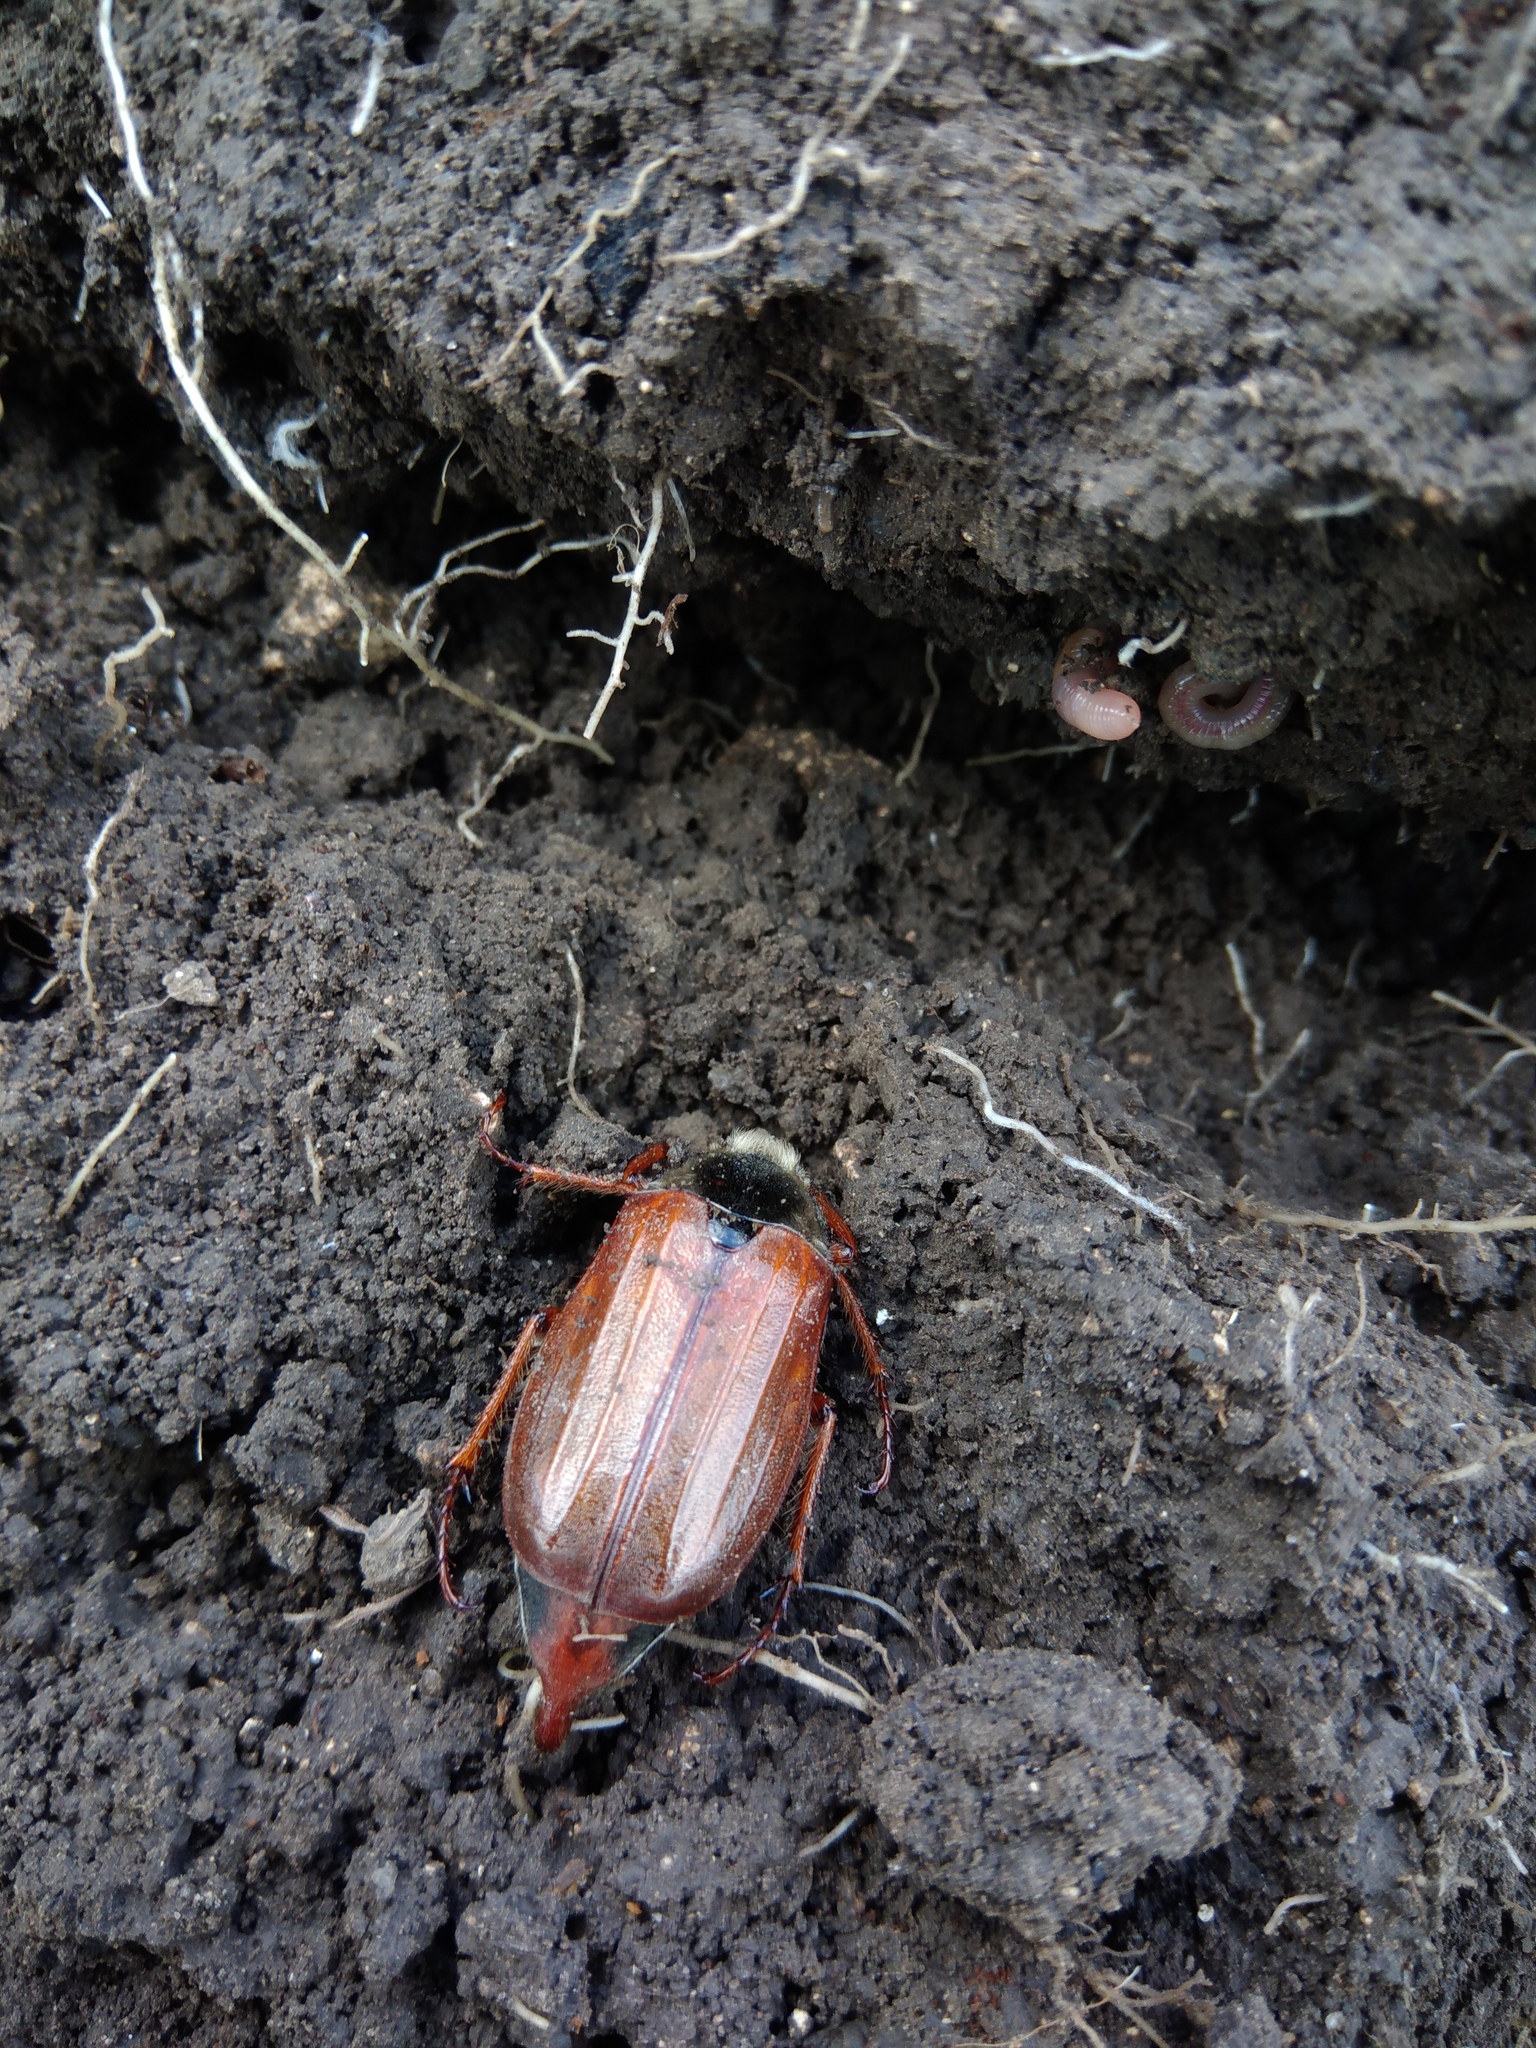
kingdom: Animalia
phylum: Arthropoda
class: Insecta
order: Coleoptera
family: Scarabaeidae
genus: Melolontha
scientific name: Melolontha melolontha
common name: Cockchafer maybeetle
